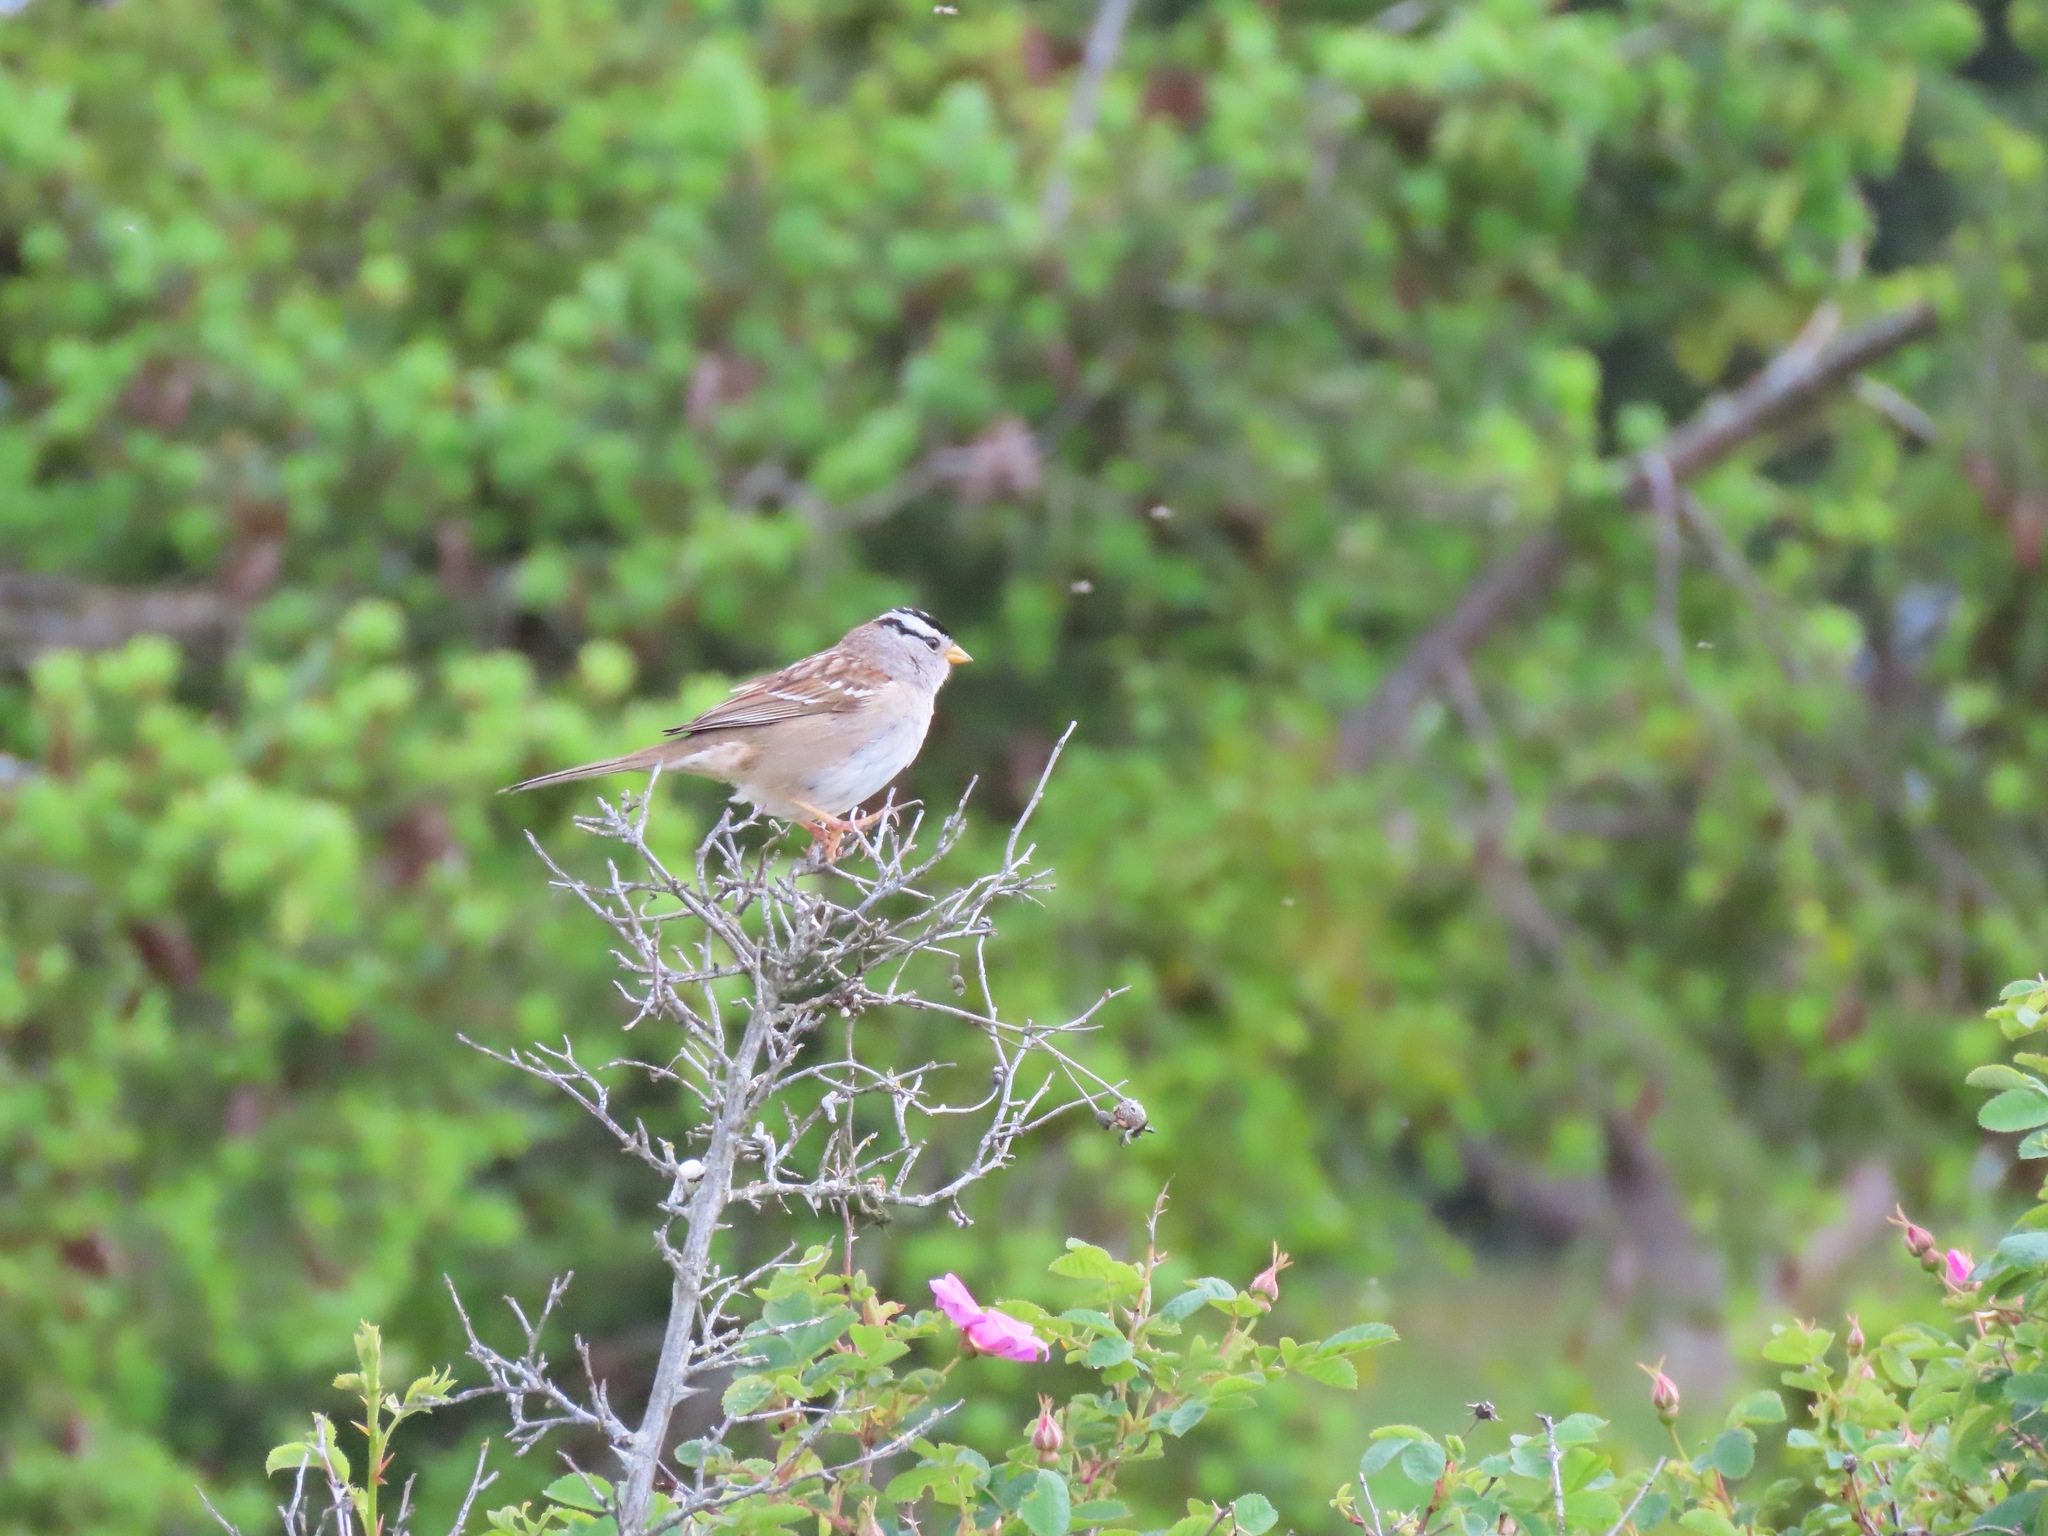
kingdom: Animalia
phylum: Chordata
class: Aves
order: Passeriformes
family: Passerellidae
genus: Zonotrichia
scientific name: Zonotrichia leucophrys
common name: White-crowned sparrow
